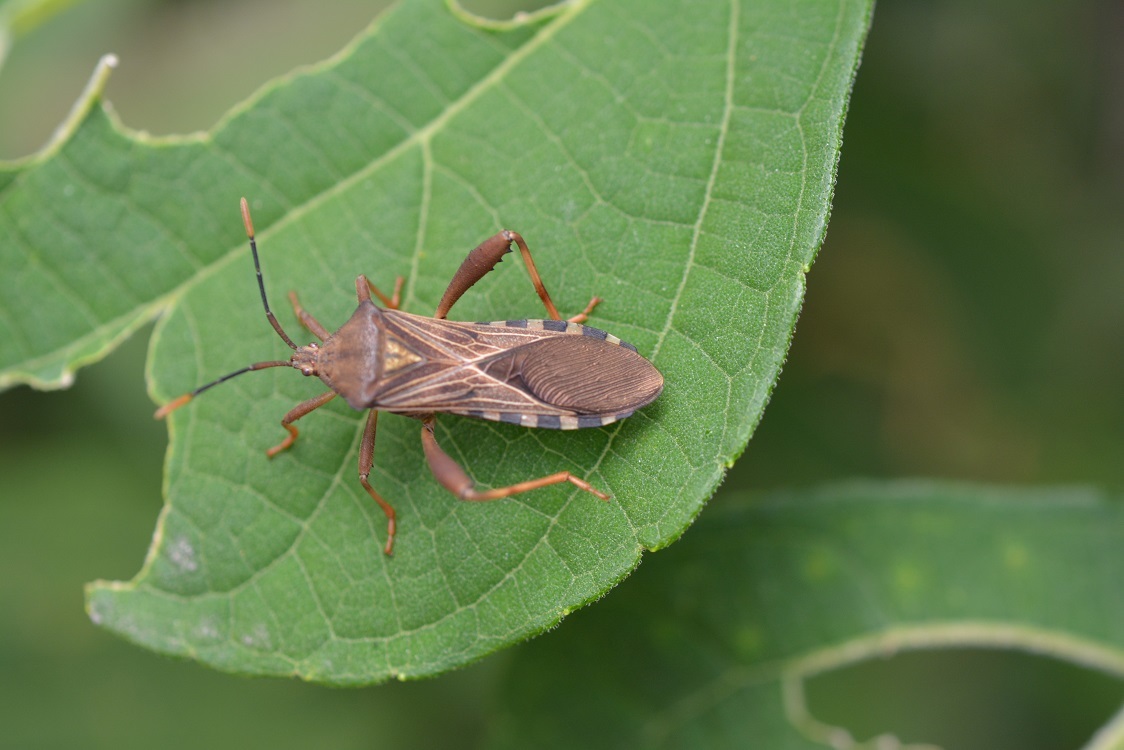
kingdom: Animalia
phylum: Arthropoda
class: Insecta
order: Hemiptera
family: Coreidae
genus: Piezogaster
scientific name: Piezogaster basilicus
